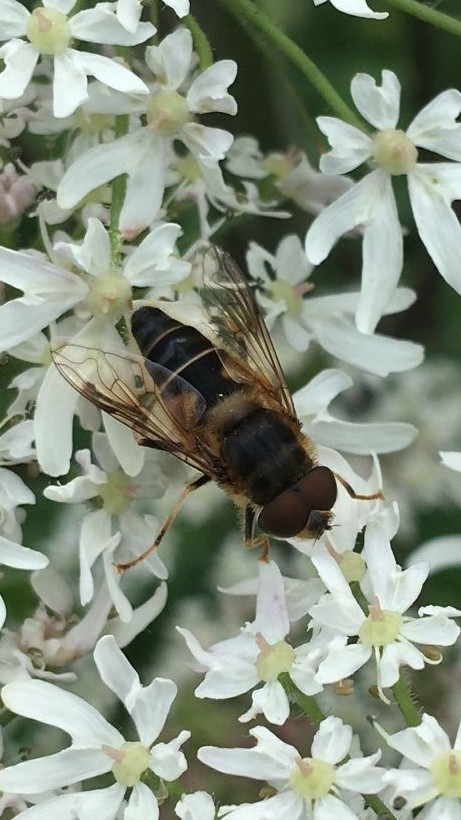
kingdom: Animalia
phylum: Arthropoda
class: Insecta
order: Diptera
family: Syrphidae
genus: Eristalis
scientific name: Eristalis pertinax
